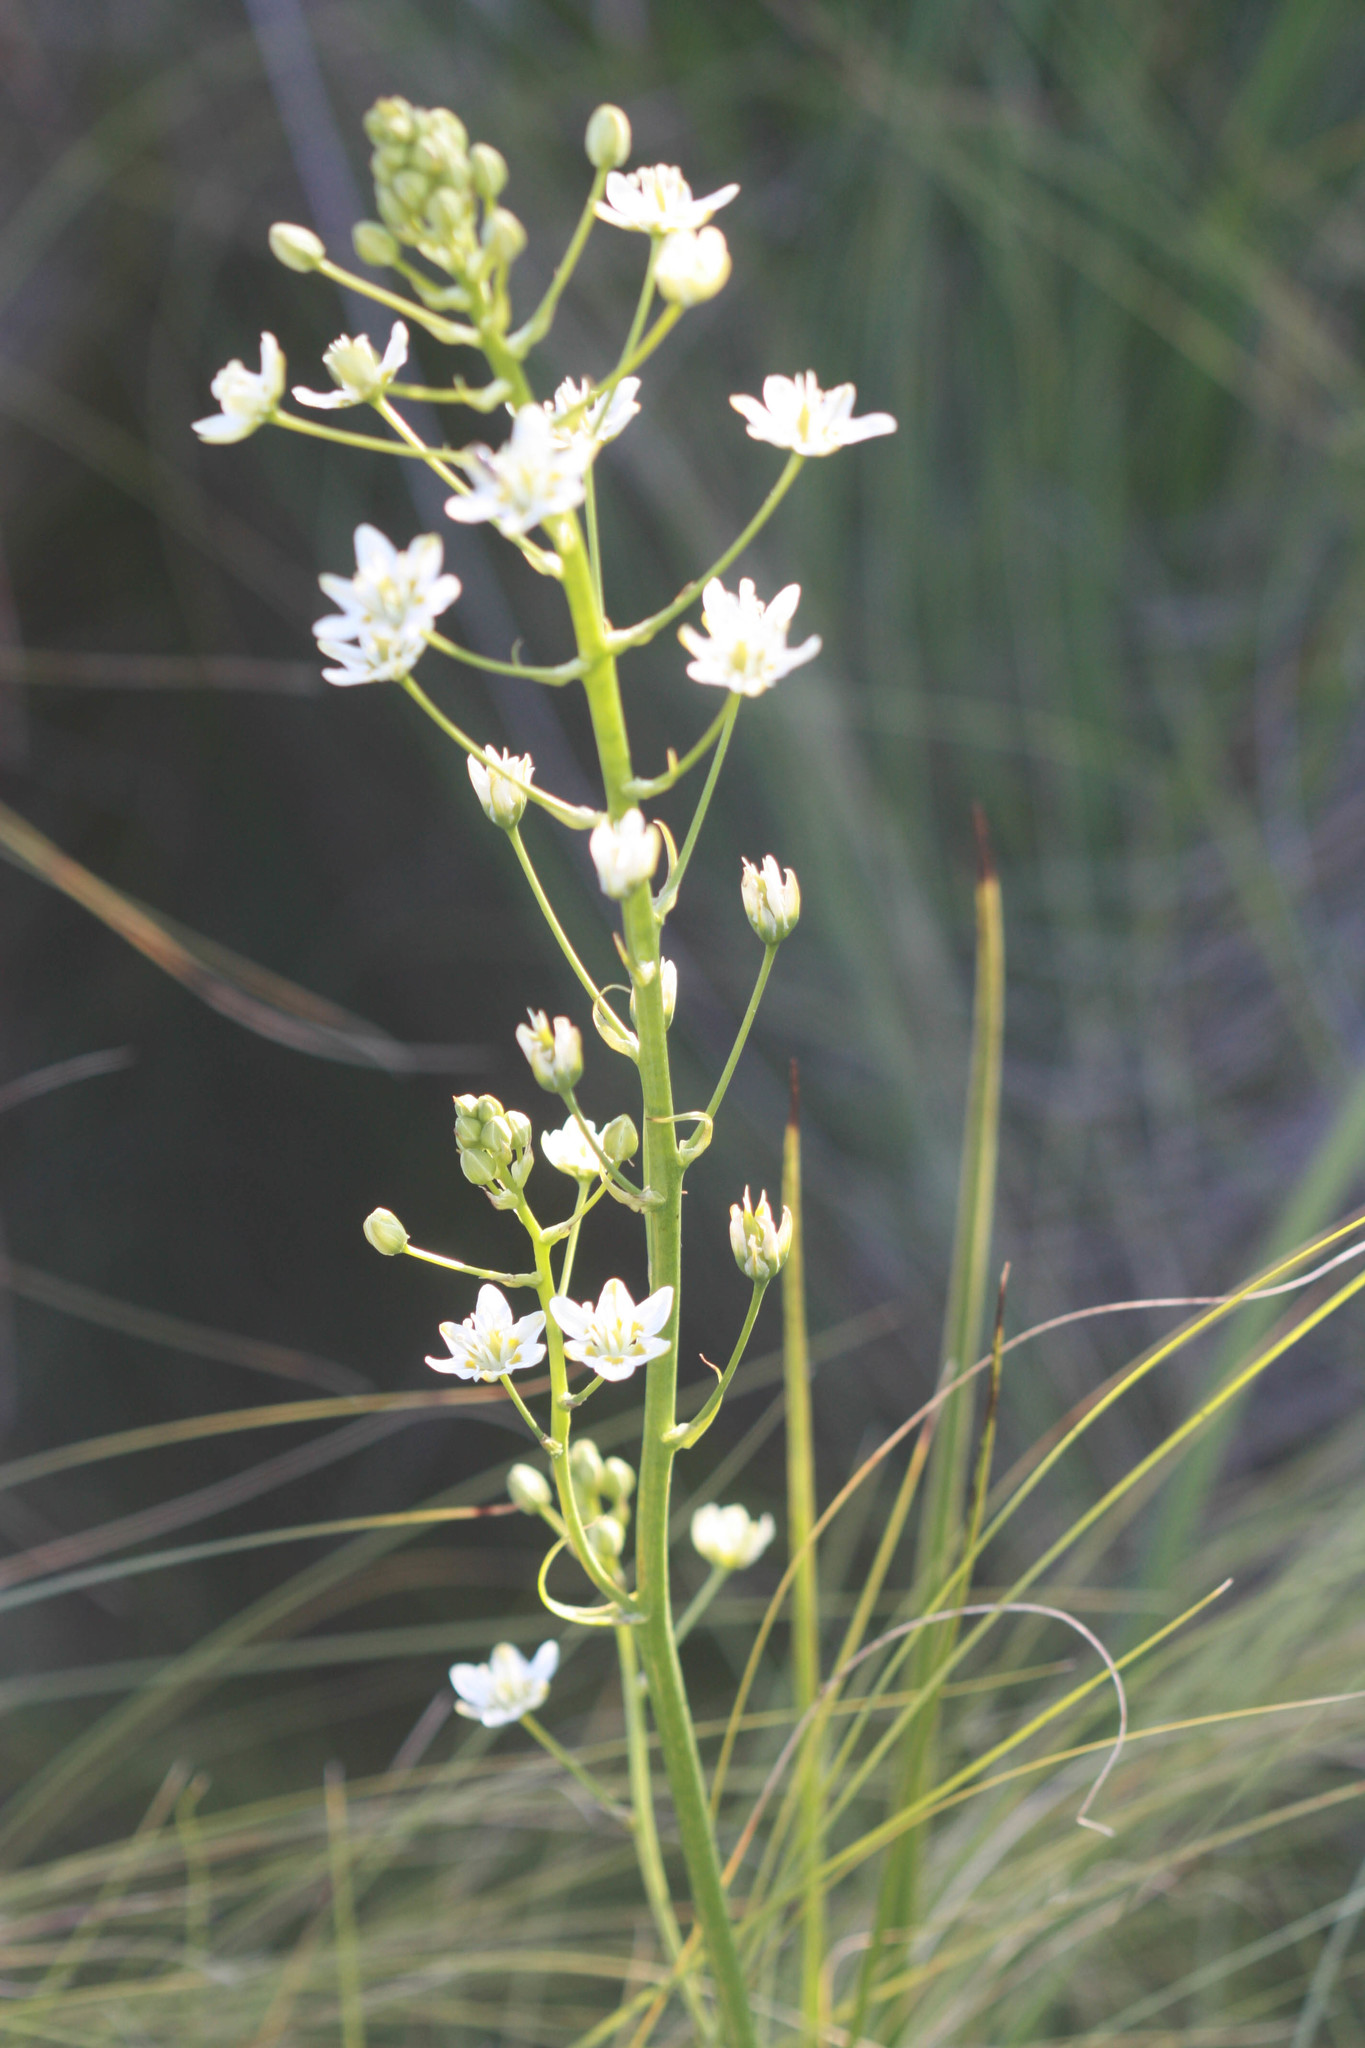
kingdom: Plantae
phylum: Tracheophyta
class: Liliopsida
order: Liliales
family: Melanthiaceae
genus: Toxicoscordion
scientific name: Toxicoscordion fontanum
